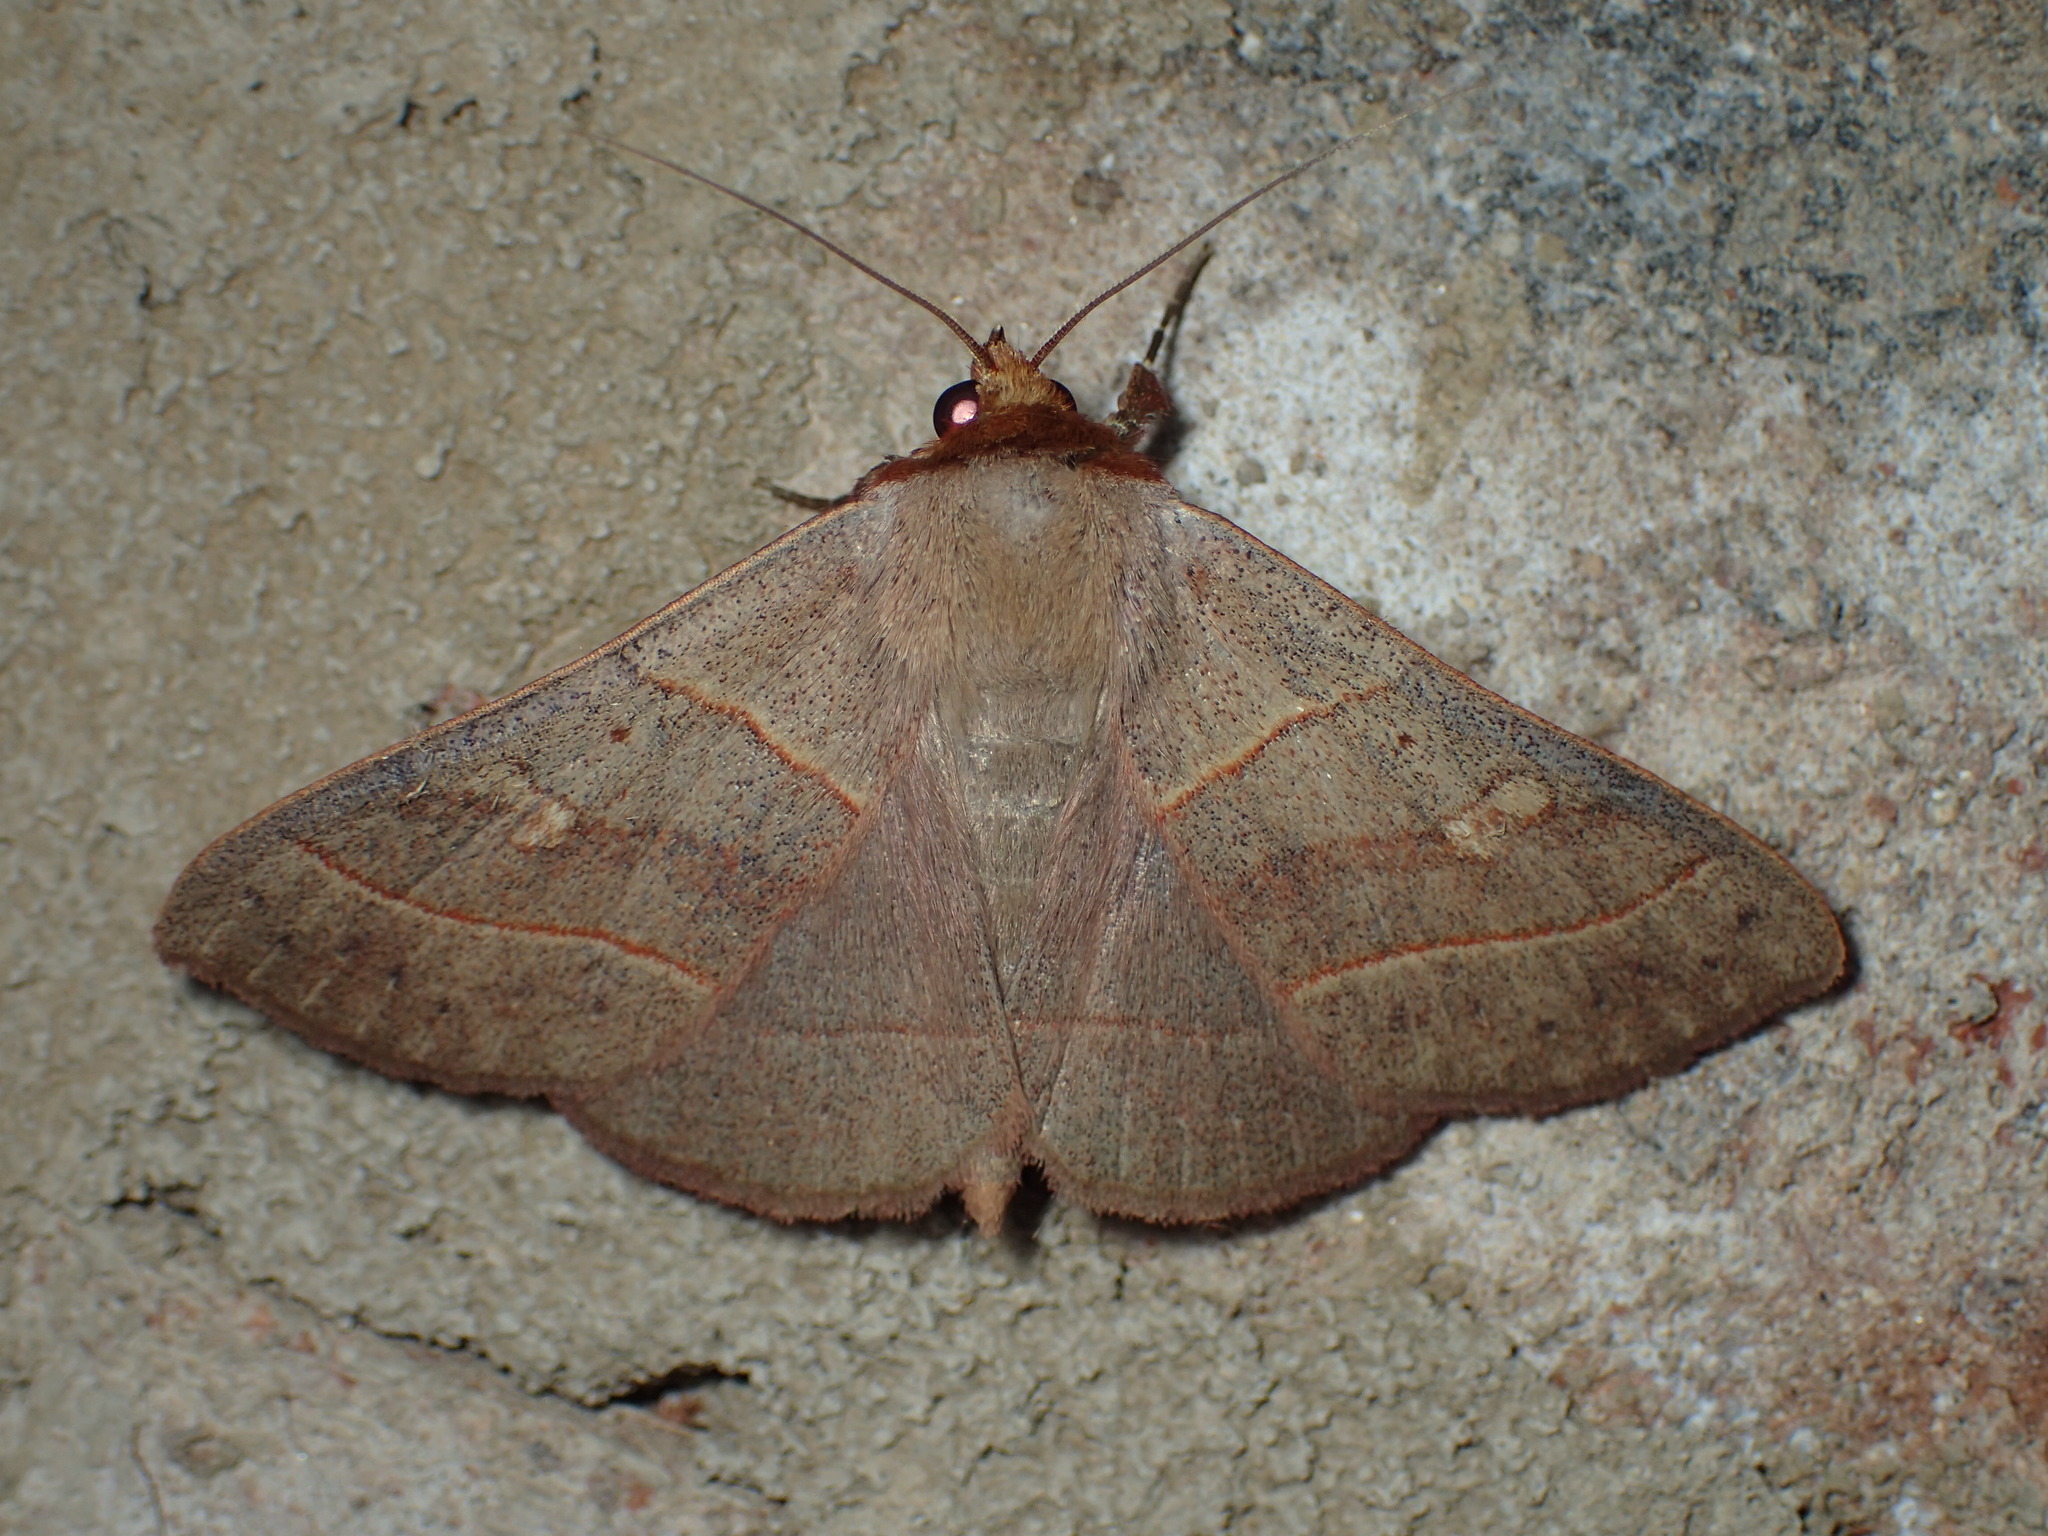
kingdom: Animalia
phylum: Arthropoda
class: Insecta
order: Lepidoptera
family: Erebidae
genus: Panopoda
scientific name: Panopoda rufimargo
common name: Red-lined panopoda moth
